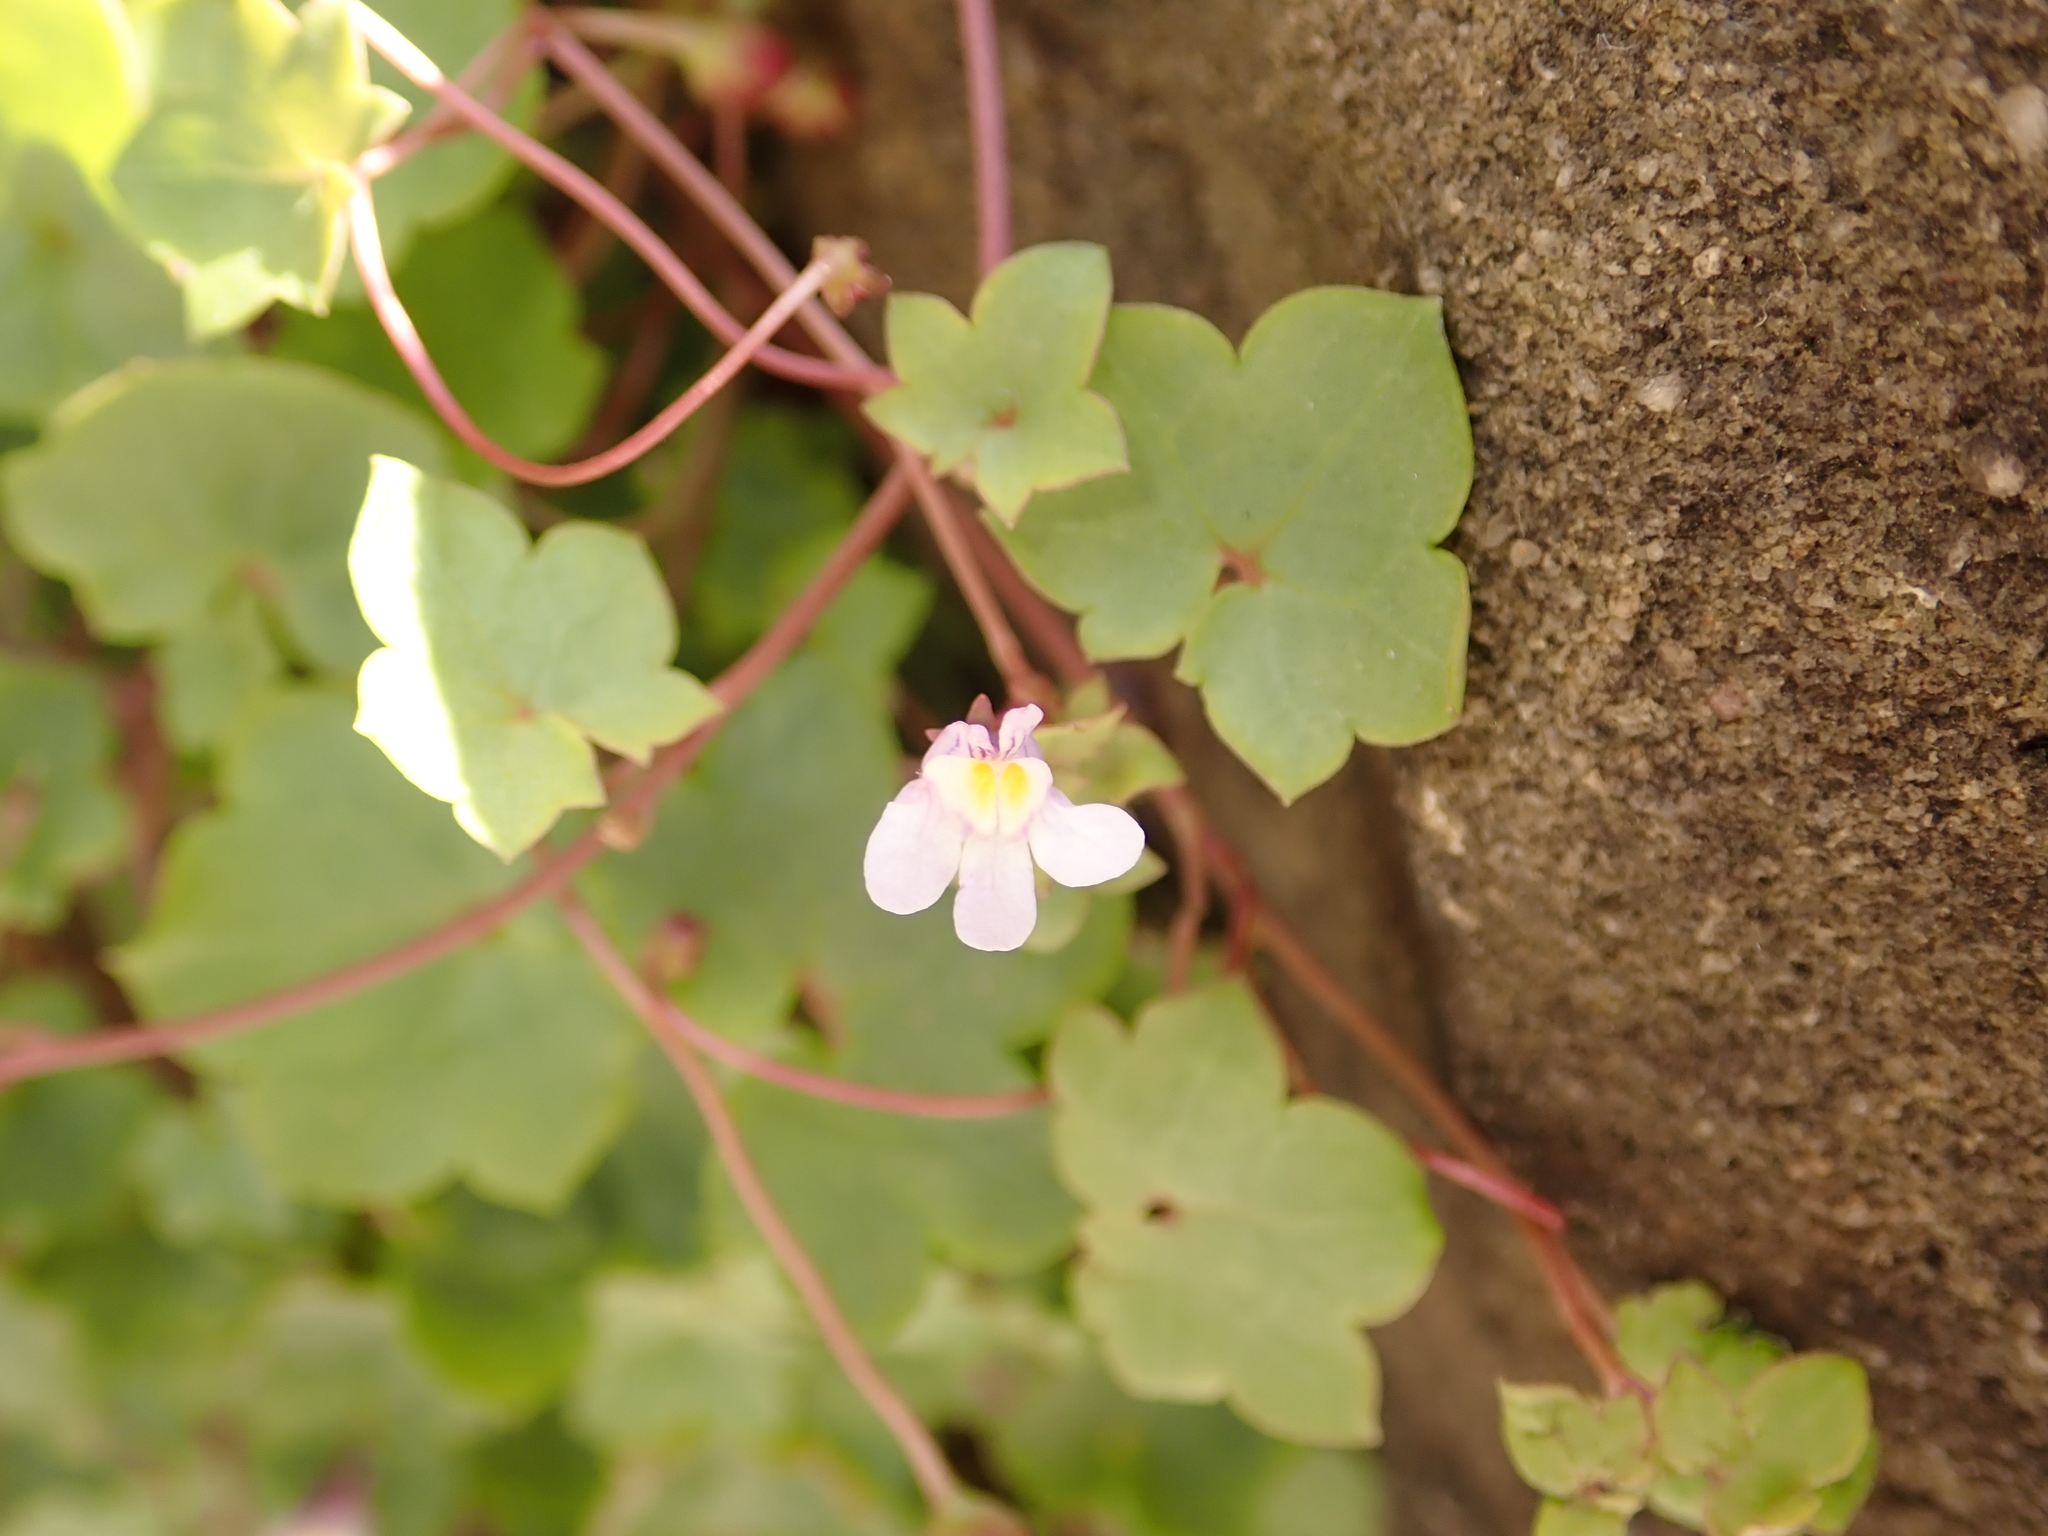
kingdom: Plantae
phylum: Tracheophyta
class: Magnoliopsida
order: Lamiales
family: Plantaginaceae
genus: Cymbalaria
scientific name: Cymbalaria muralis
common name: Ivy-leaved toadflax
